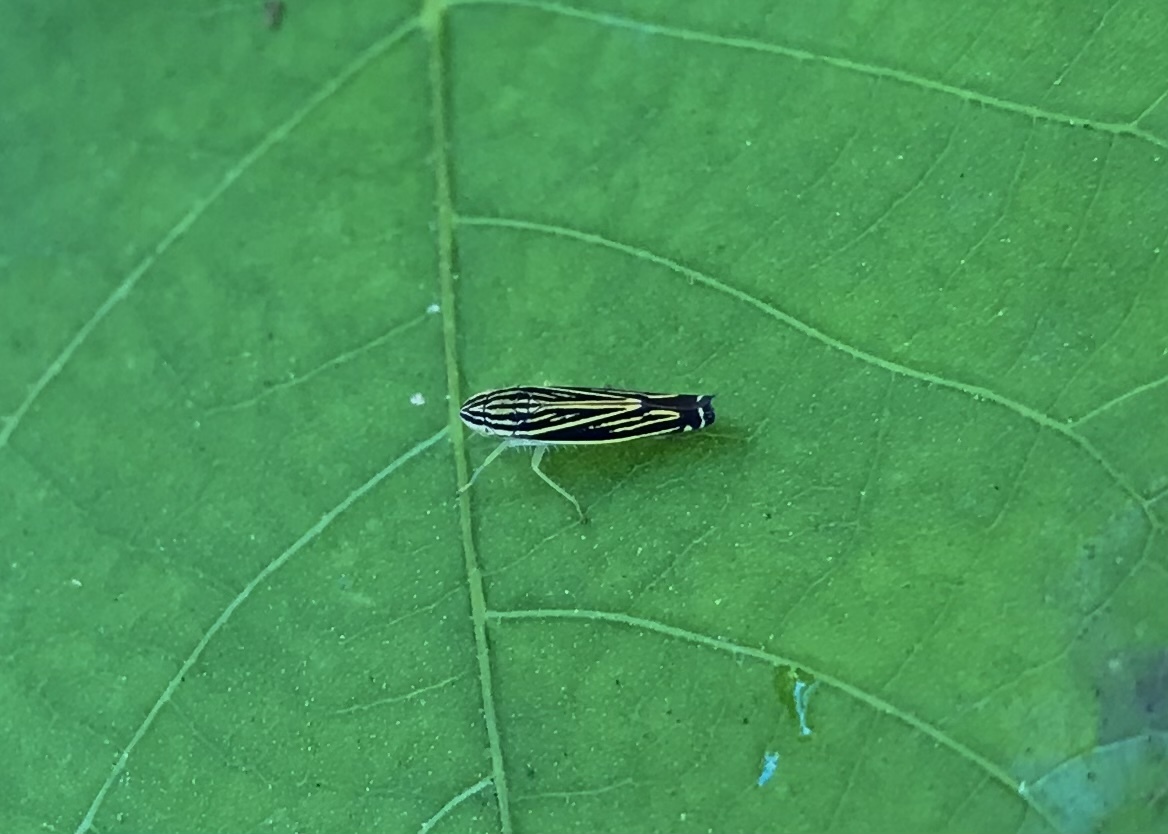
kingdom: Animalia
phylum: Arthropoda
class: Insecta
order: Hemiptera
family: Cicadellidae
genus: Sibovia
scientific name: Sibovia occatoria
